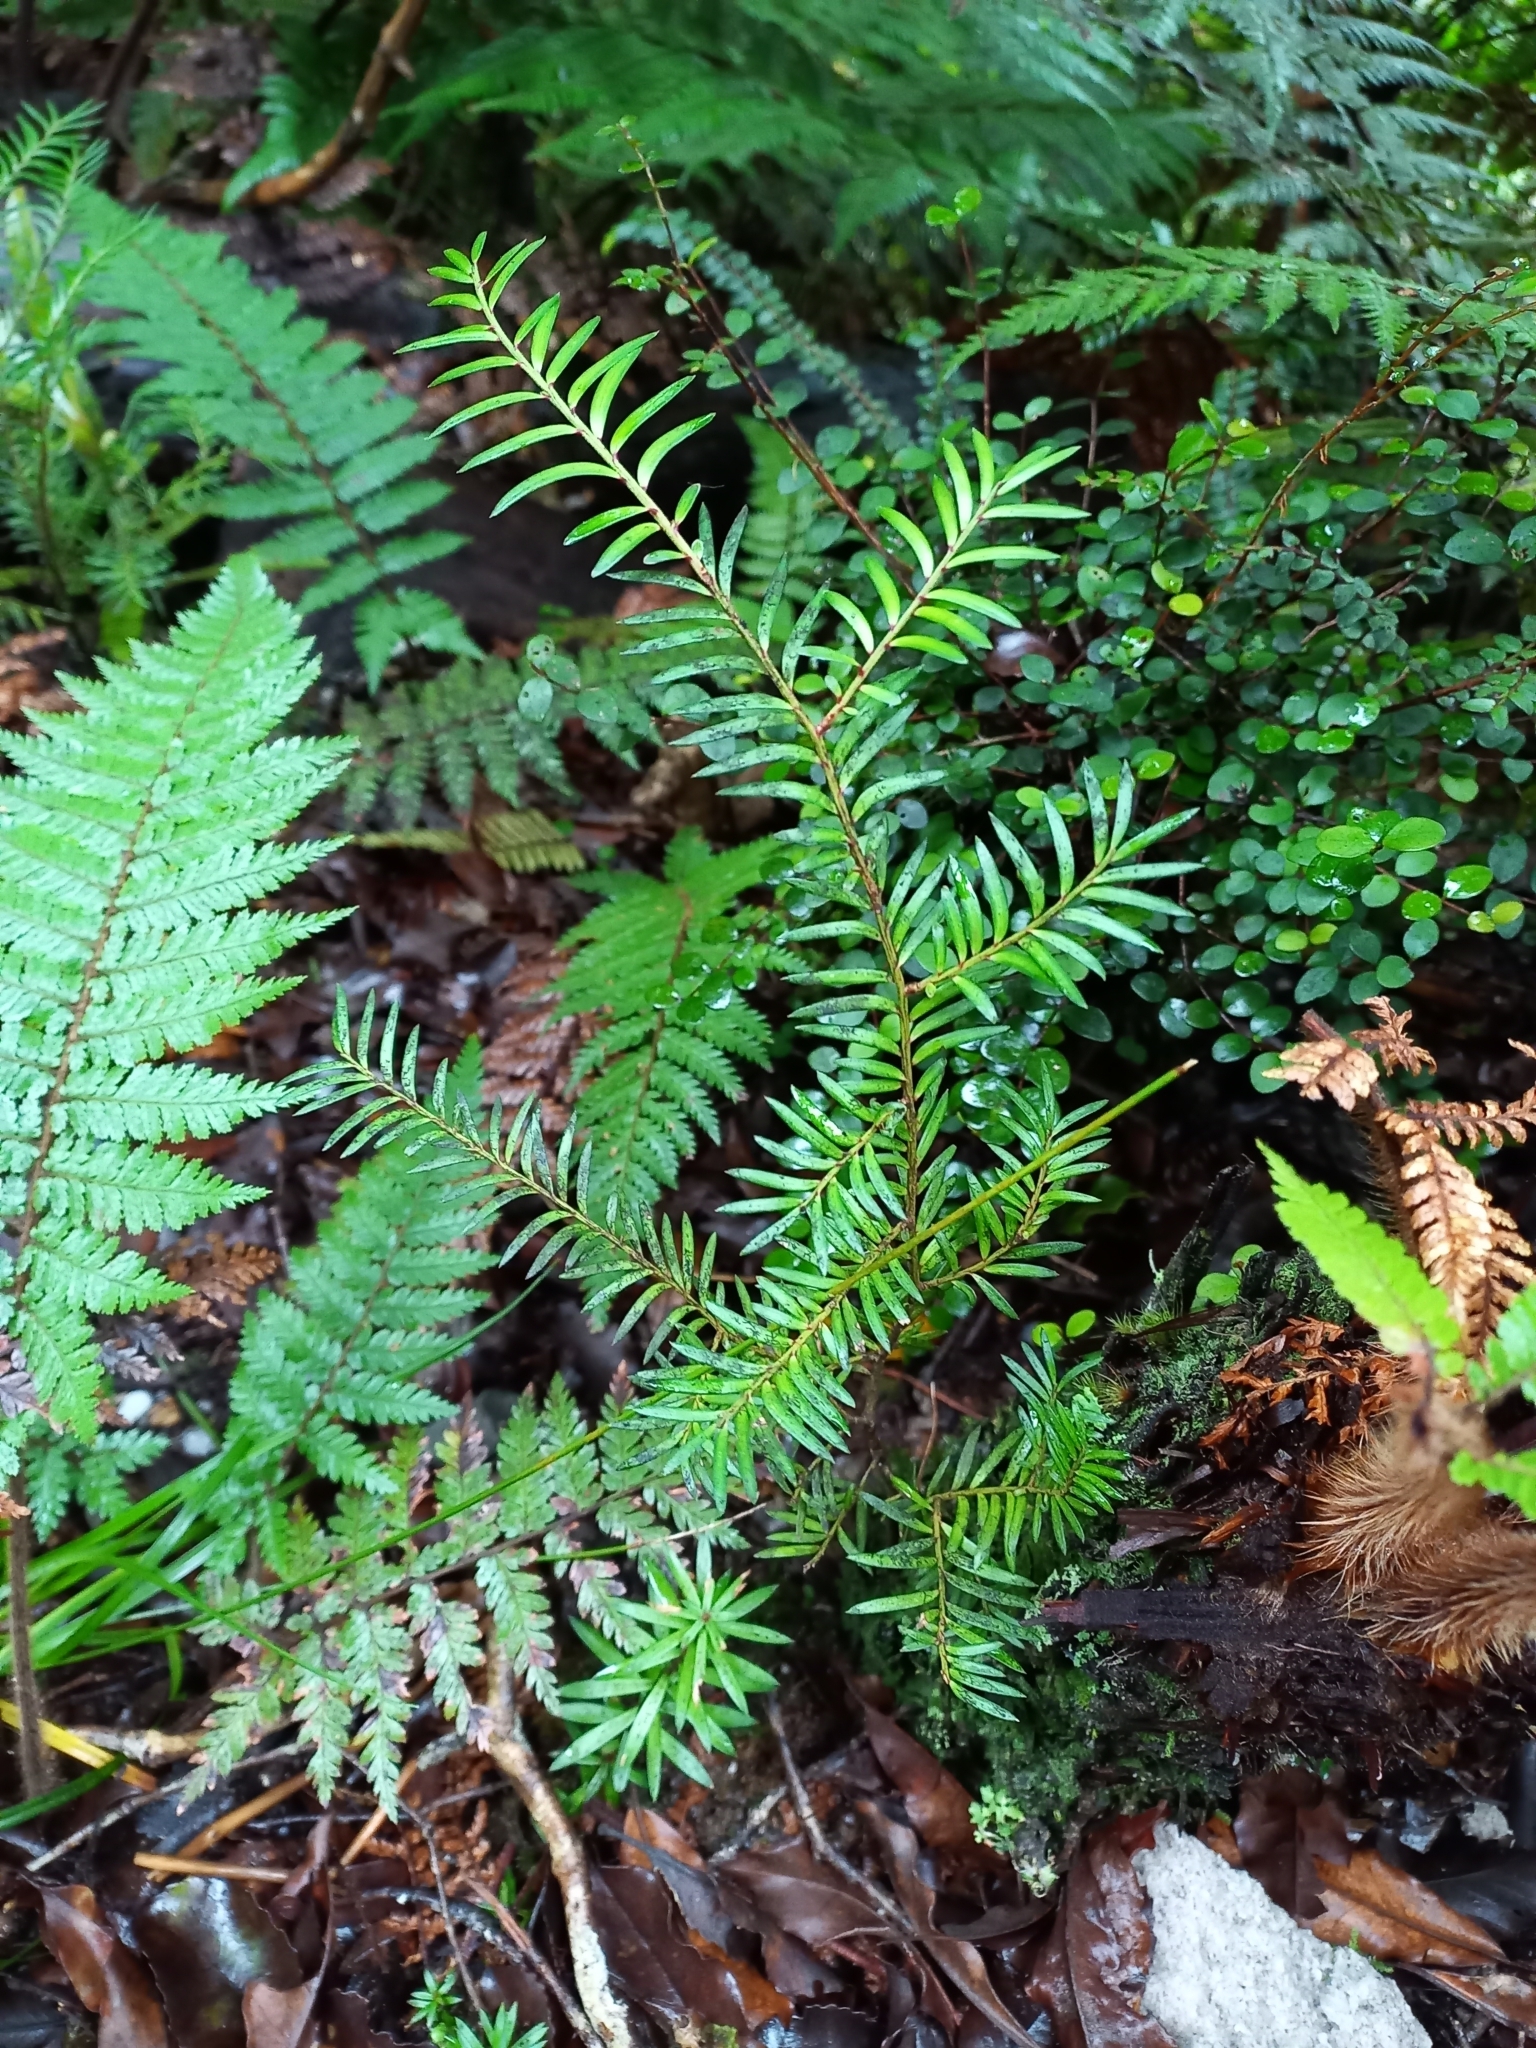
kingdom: Plantae
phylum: Tracheophyta
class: Pinopsida
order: Pinales
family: Podocarpaceae
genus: Prumnopitys
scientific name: Prumnopitys ferruginea
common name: Brown pine
